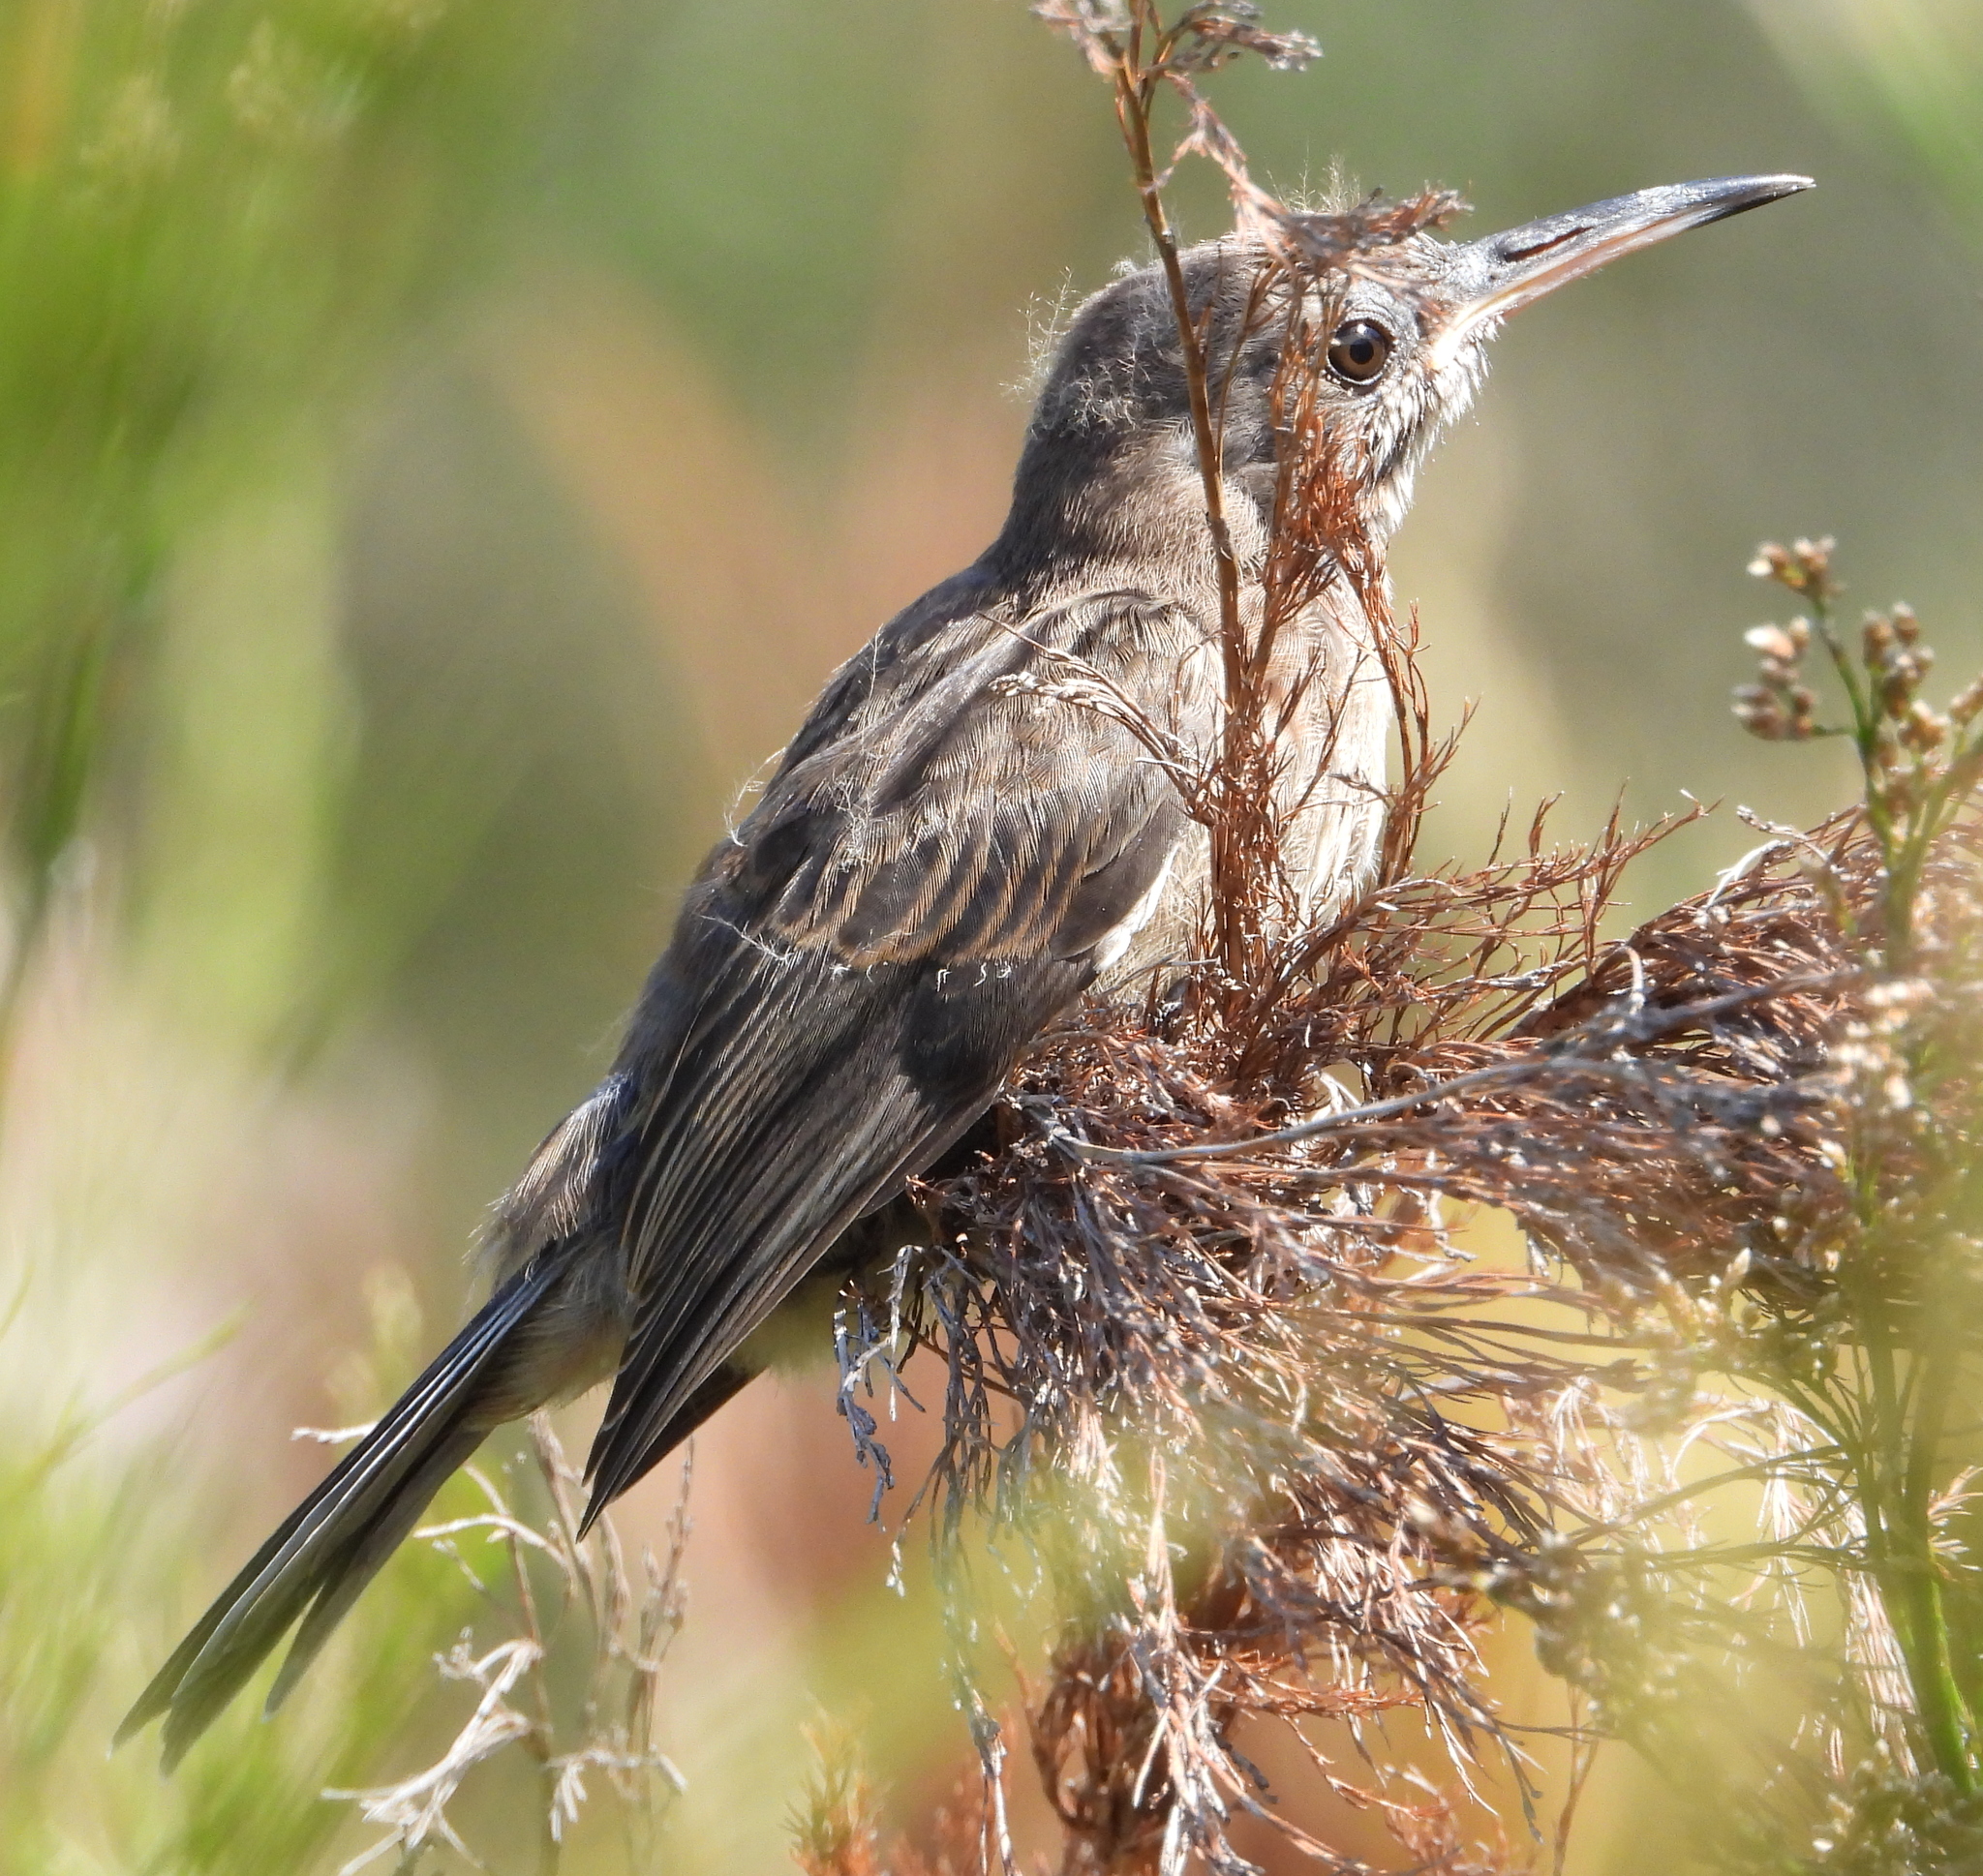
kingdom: Animalia
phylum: Chordata
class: Aves
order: Passeriformes
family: Promeropidae
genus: Promerops
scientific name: Promerops cafer
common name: Cape sugarbird
